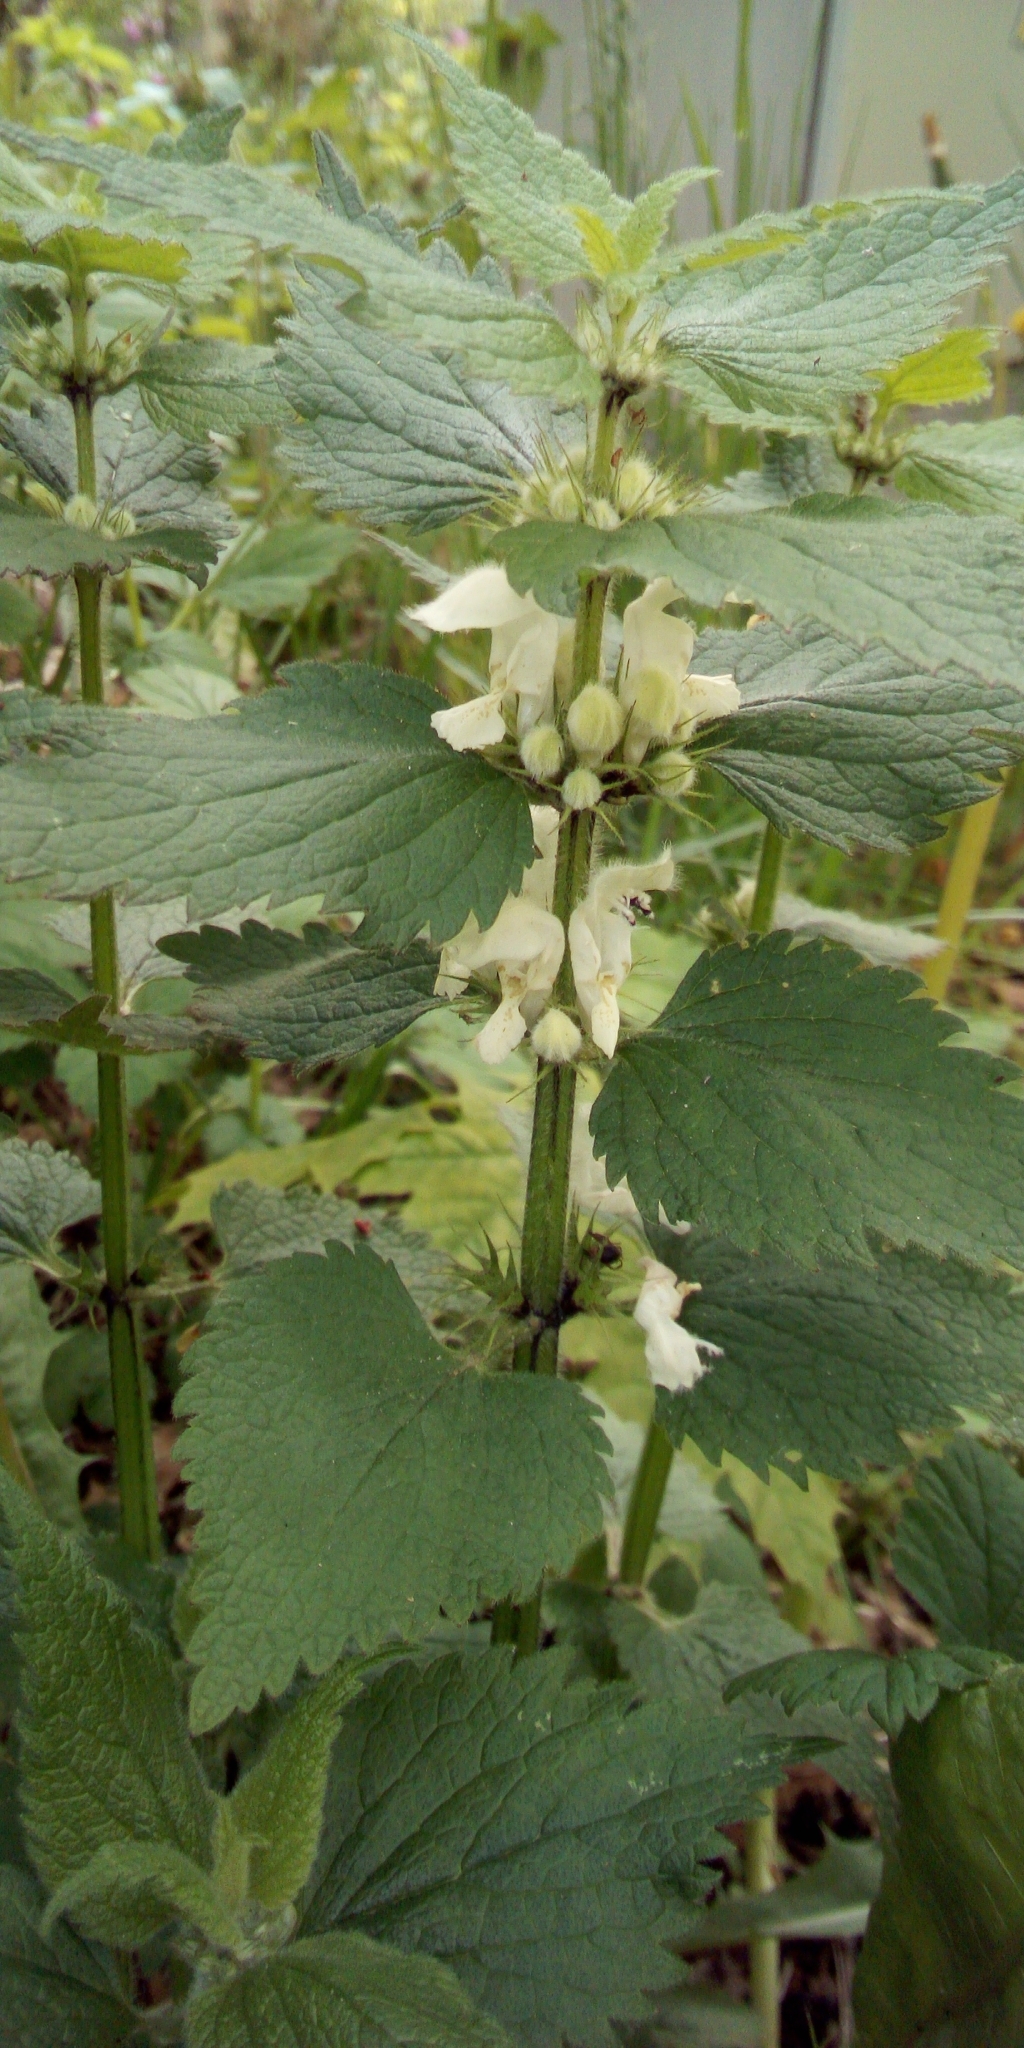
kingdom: Plantae
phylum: Tracheophyta
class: Magnoliopsida
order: Lamiales
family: Lamiaceae
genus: Lamium
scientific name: Lamium album
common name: White dead-nettle
